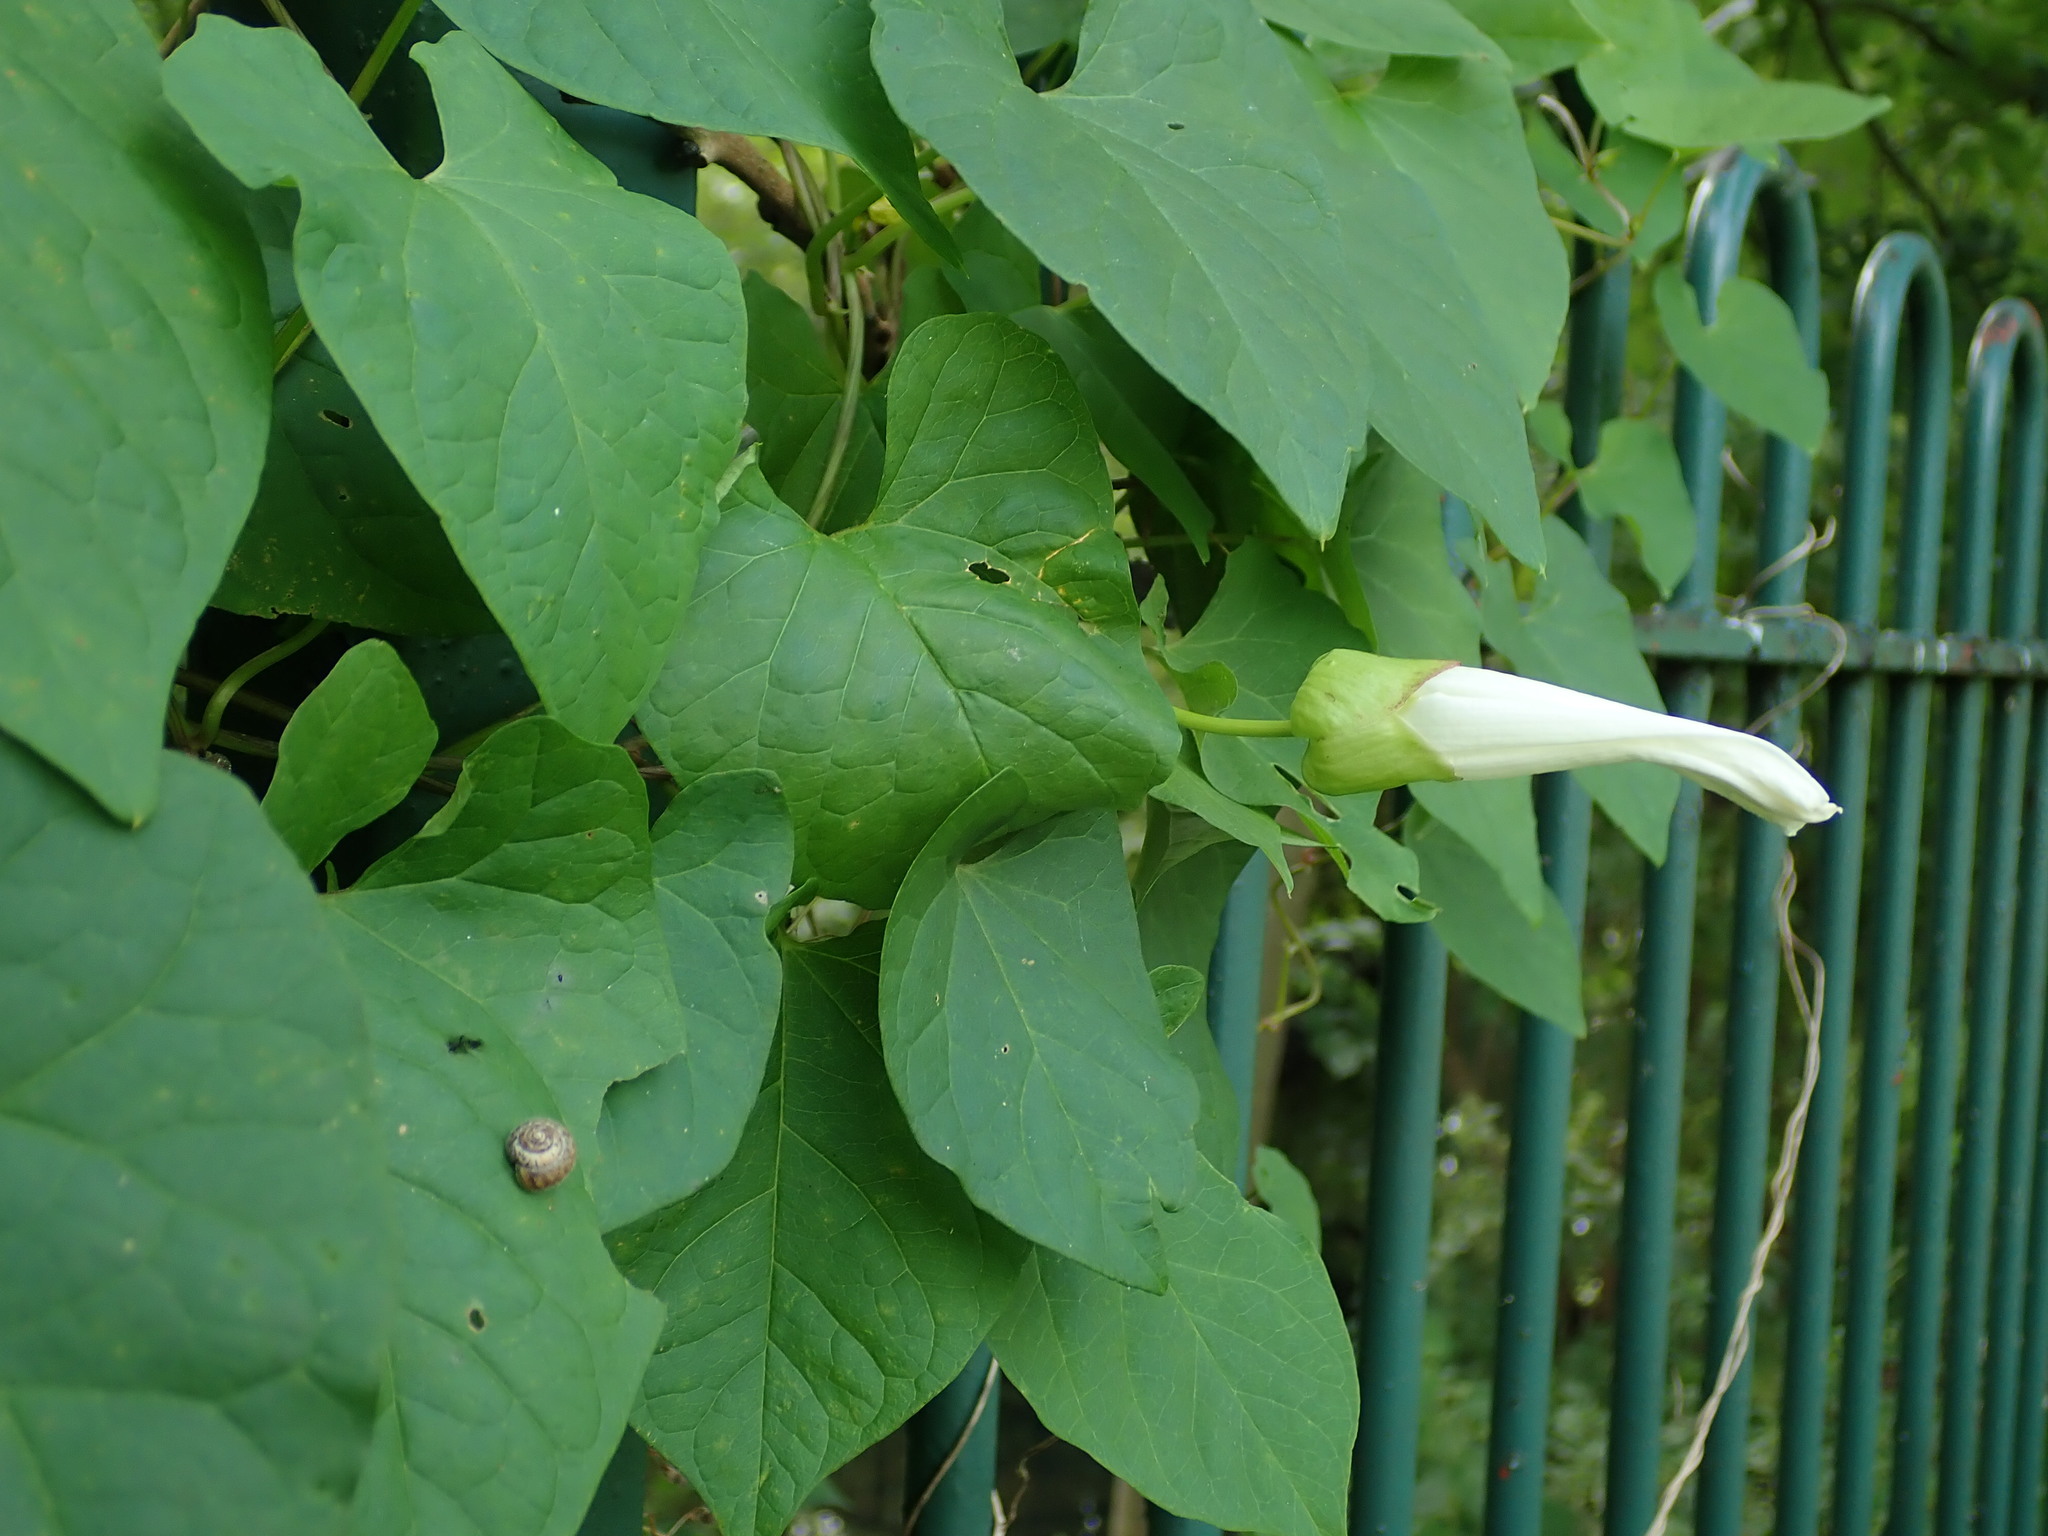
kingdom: Plantae
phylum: Tracheophyta
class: Magnoliopsida
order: Solanales
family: Convolvulaceae
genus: Calystegia
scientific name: Calystegia silvatica
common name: Large bindweed
